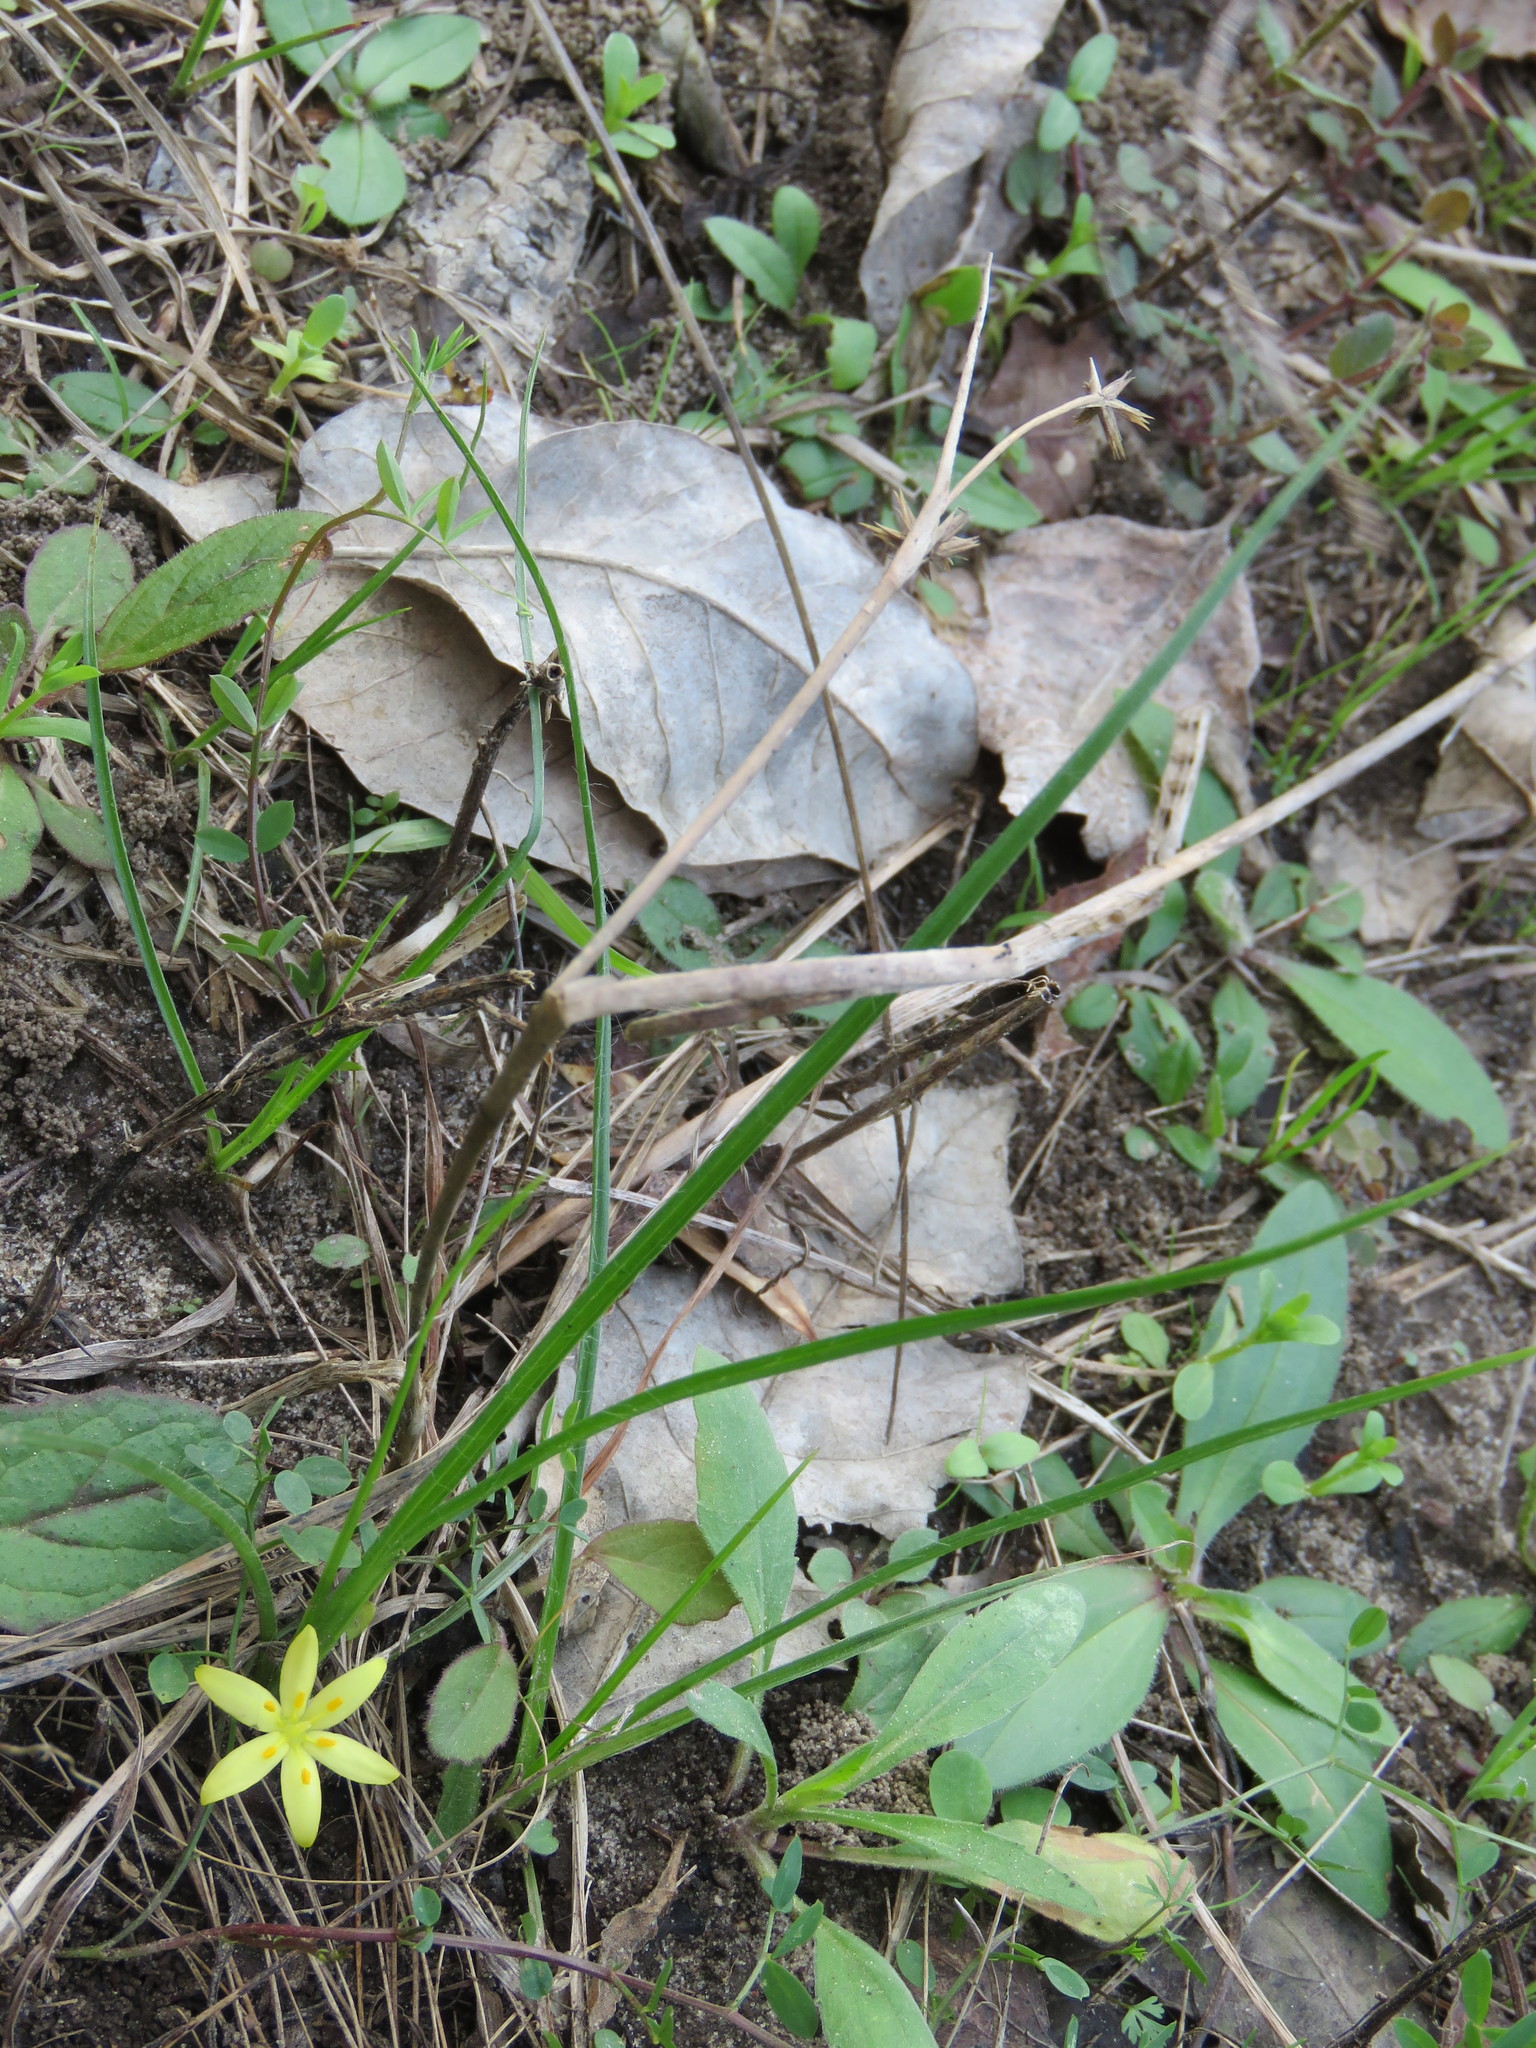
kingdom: Plantae
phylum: Tracheophyta
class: Liliopsida
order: Asparagales
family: Hypoxidaceae
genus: Hypoxis
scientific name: Hypoxis sessilis
